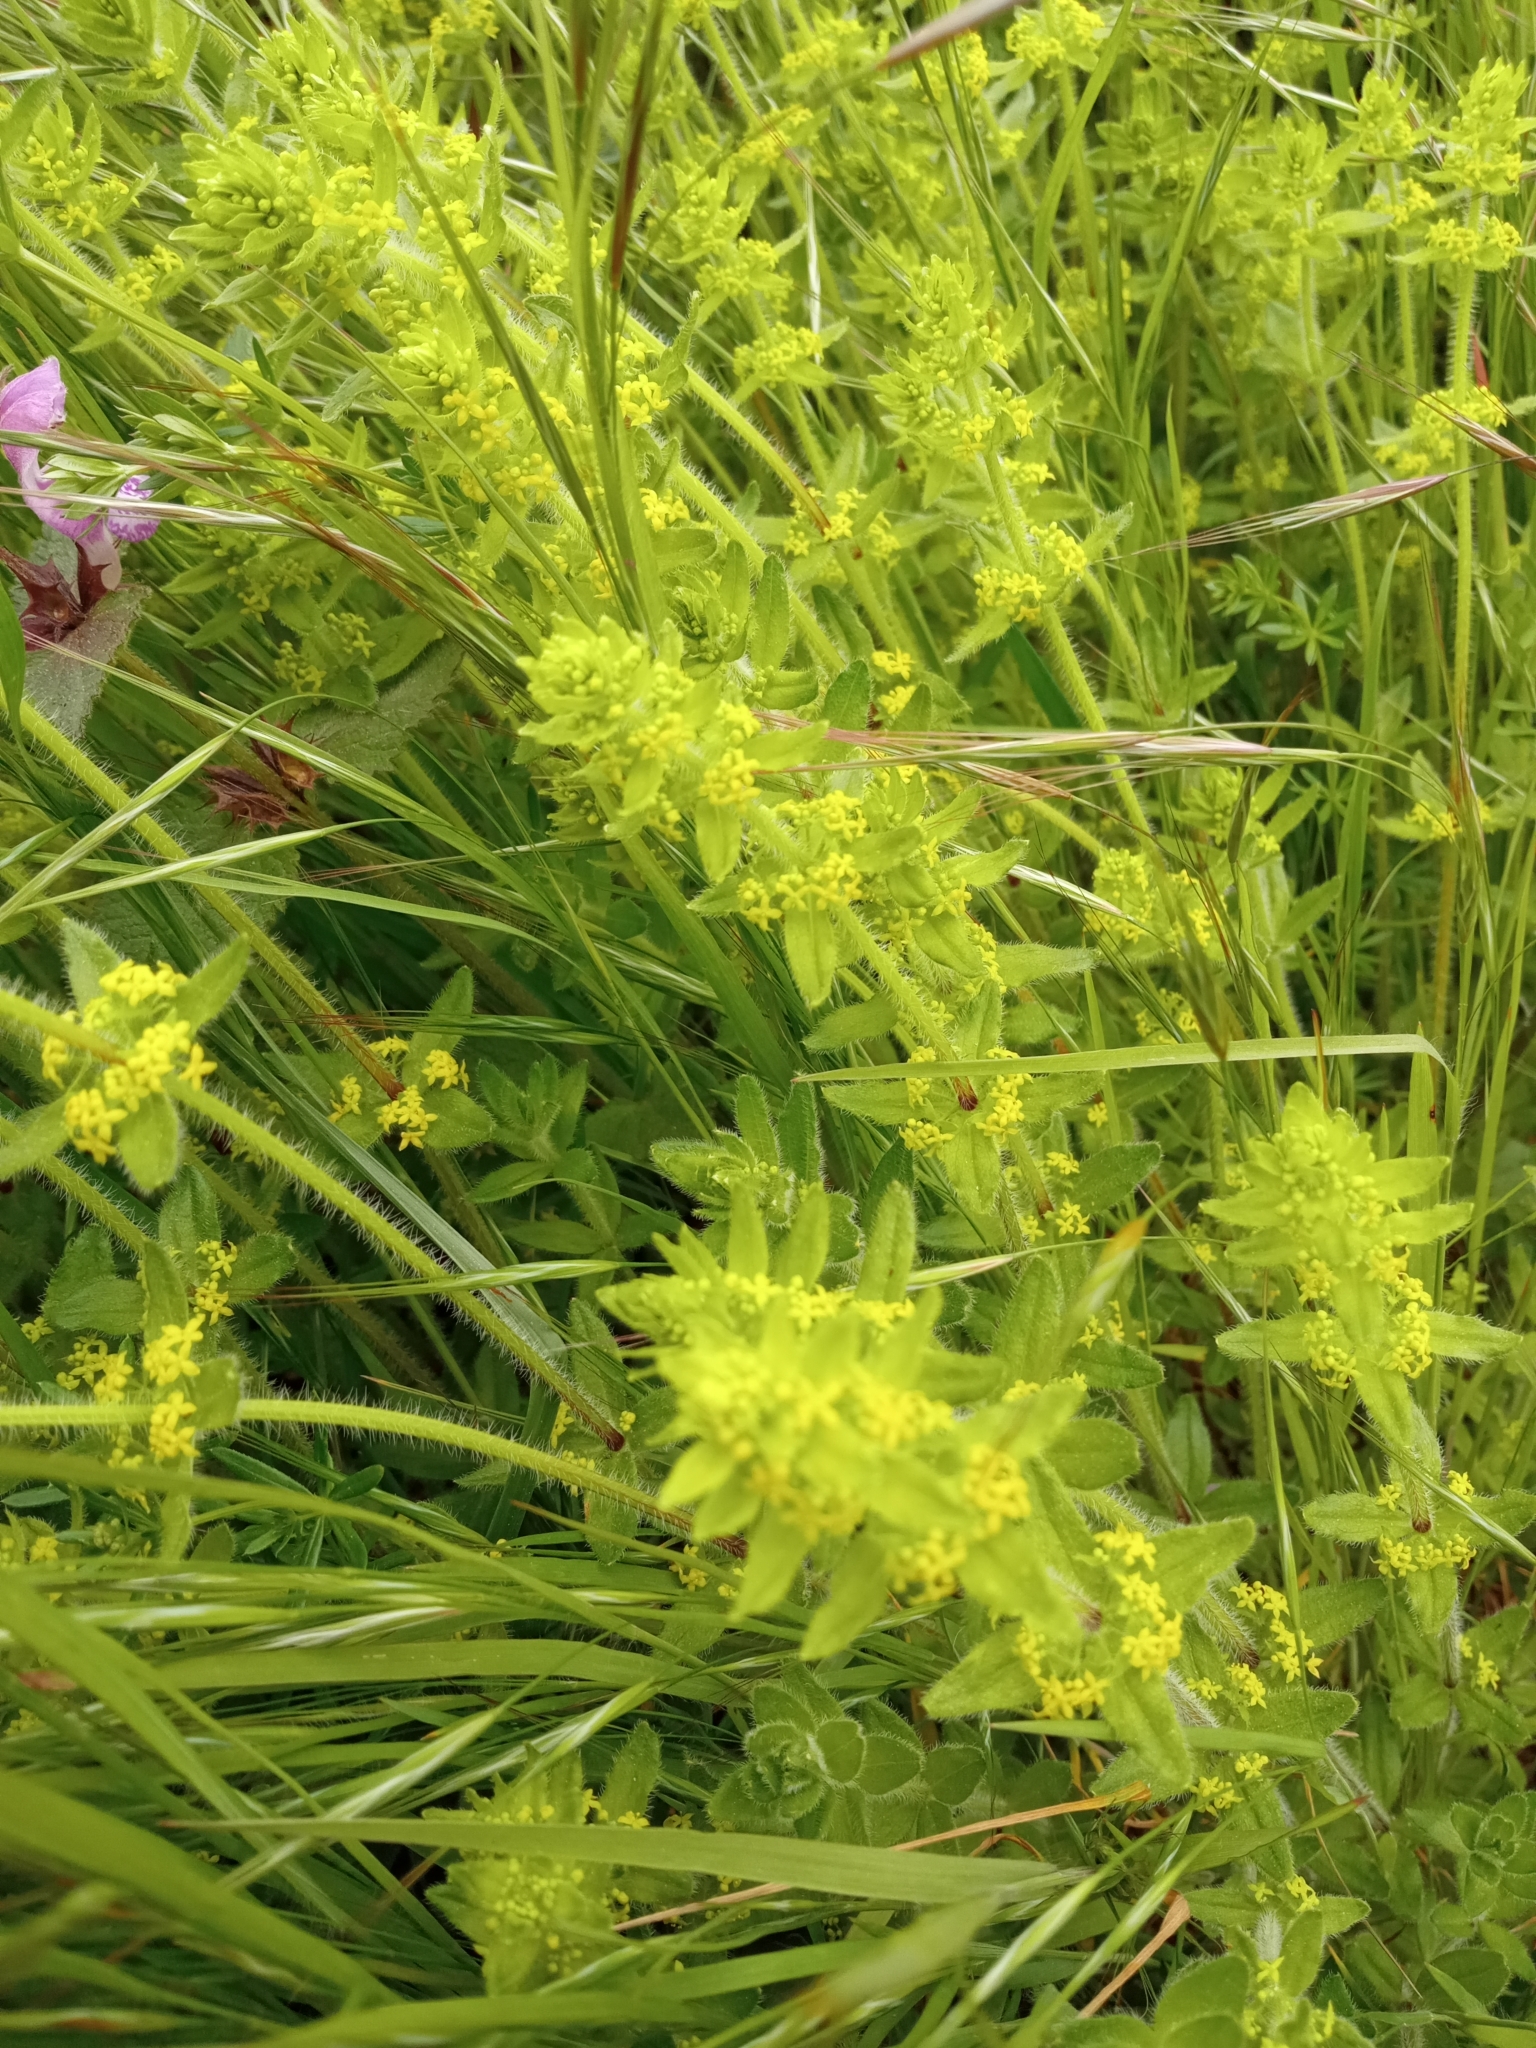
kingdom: Plantae
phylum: Tracheophyta
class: Magnoliopsida
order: Gentianales
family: Rubiaceae
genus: Cruciata
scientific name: Cruciata laevipes
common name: Crosswort
